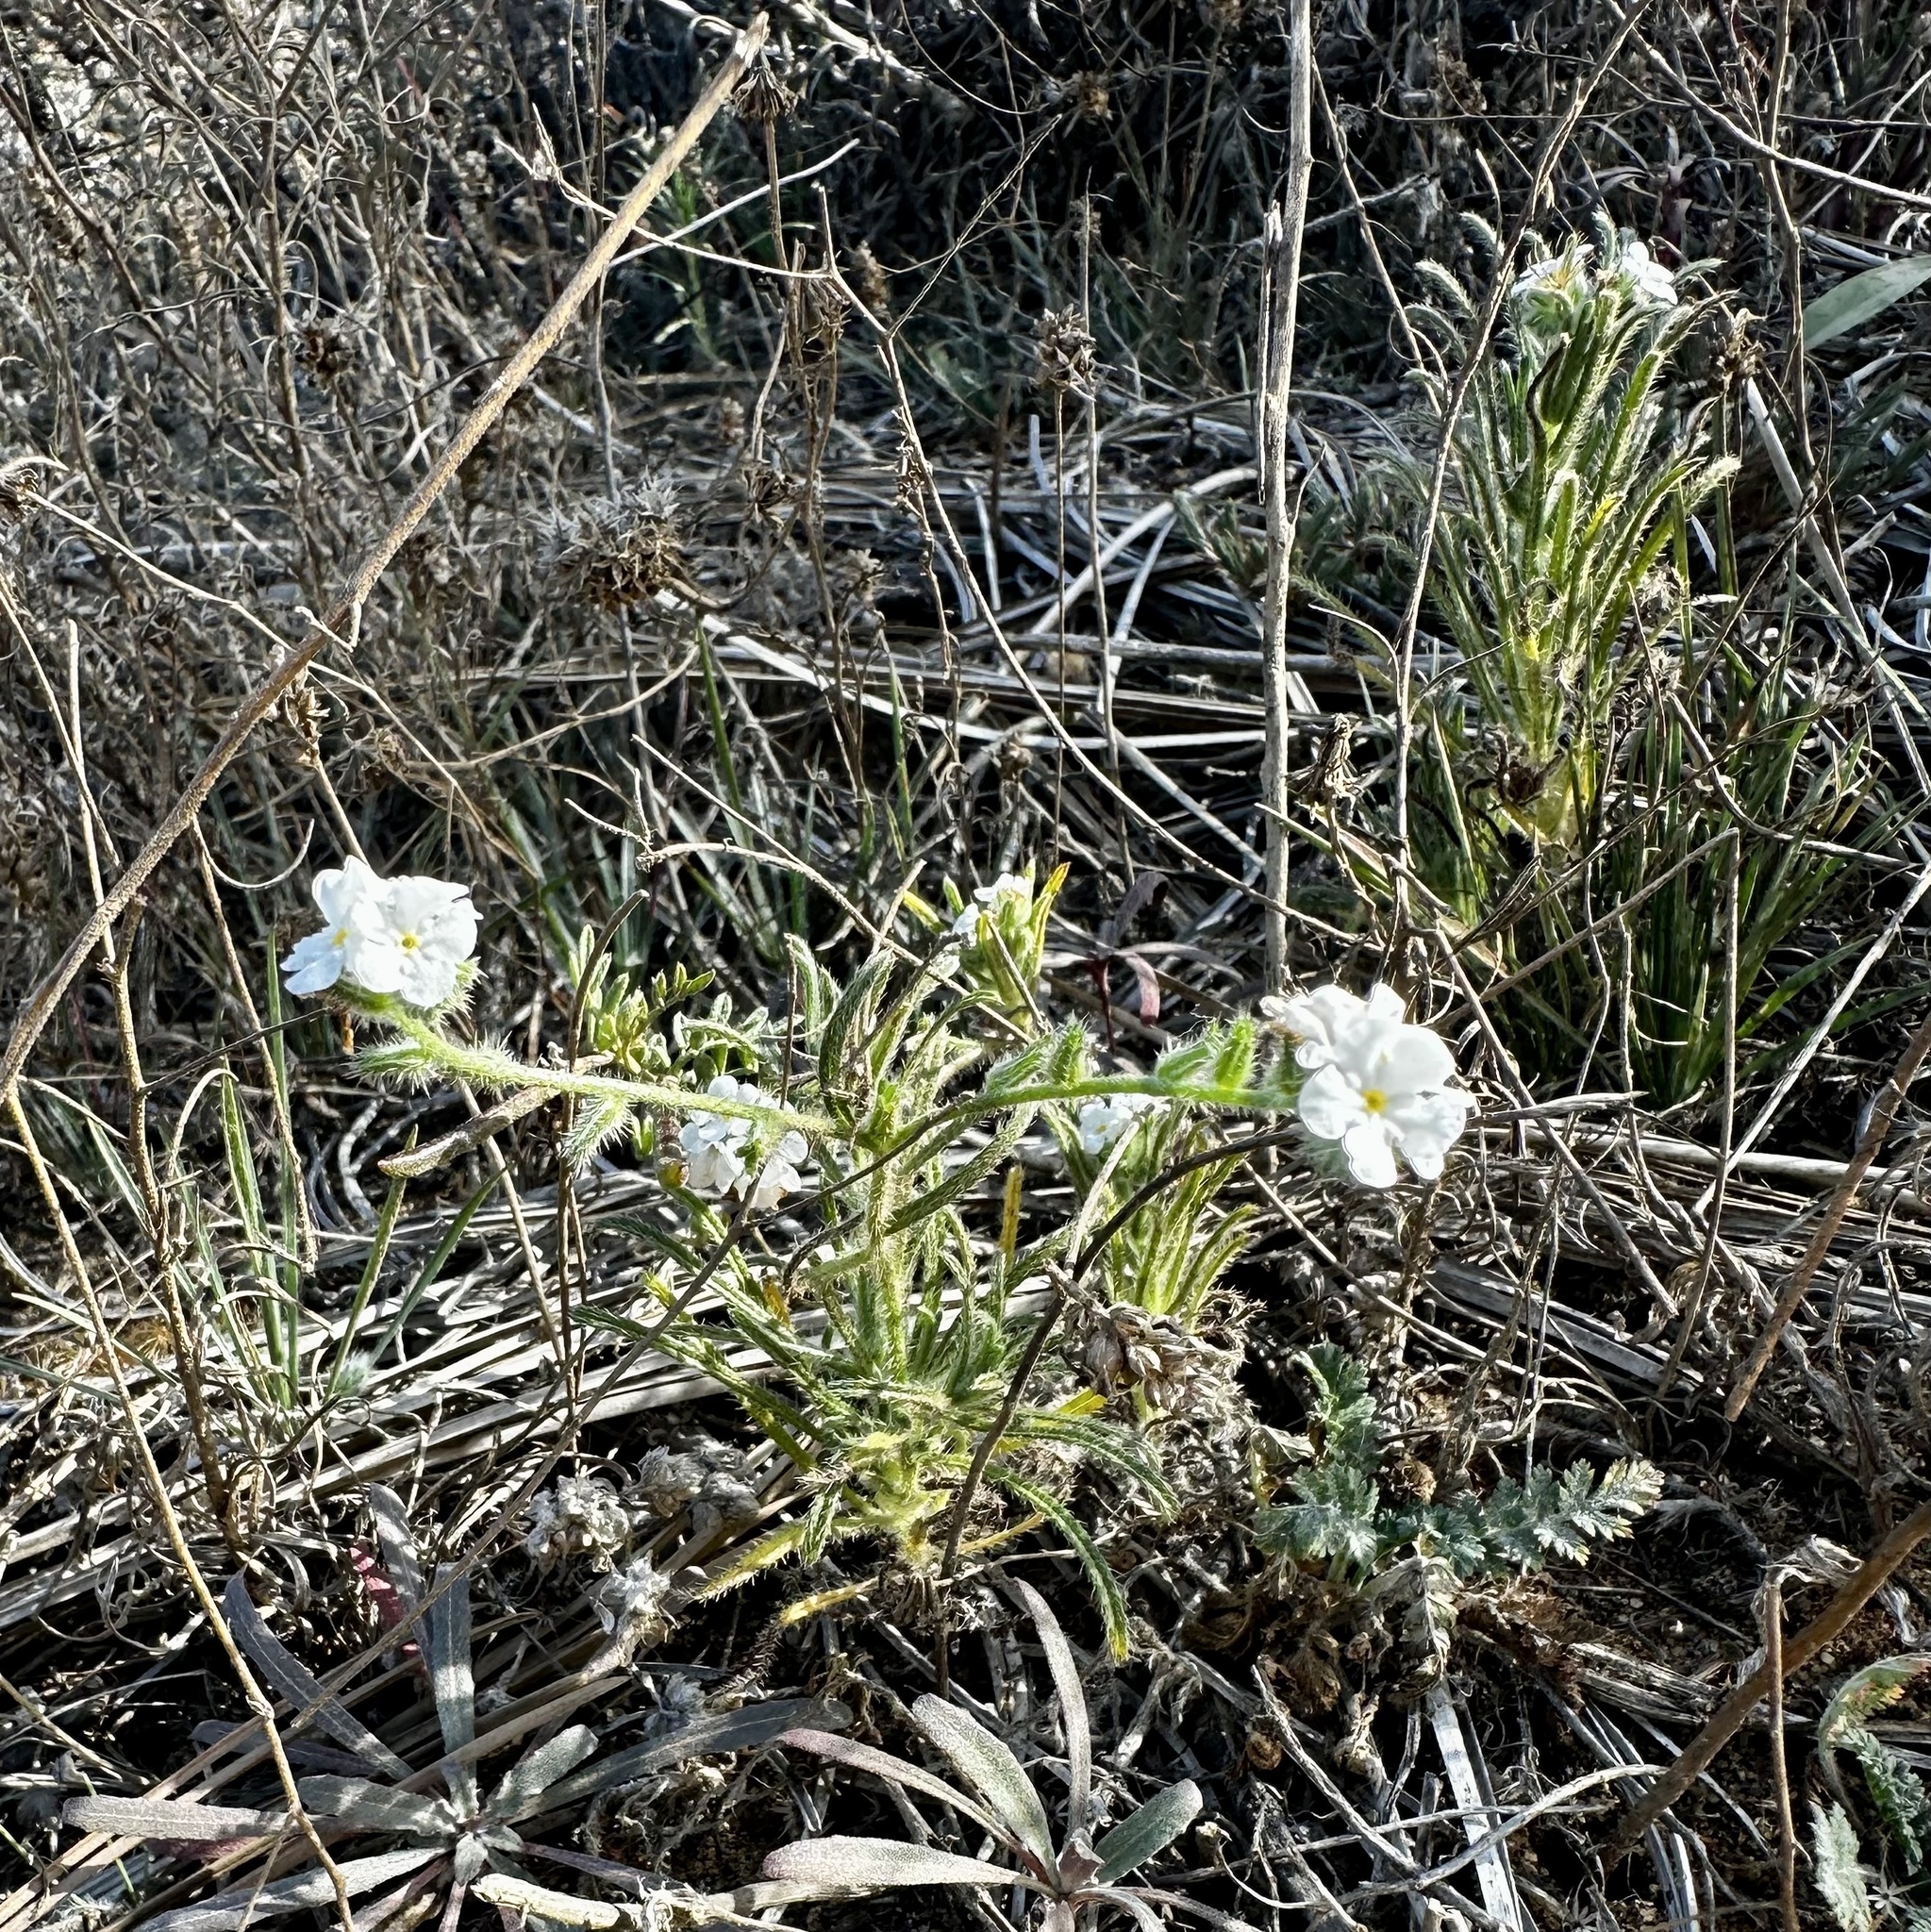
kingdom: Plantae
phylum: Tracheophyta
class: Magnoliopsida
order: Boraginales
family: Boraginaceae
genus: Cryptantha
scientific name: Cryptantha intermedia
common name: Clearwater cryptantha
